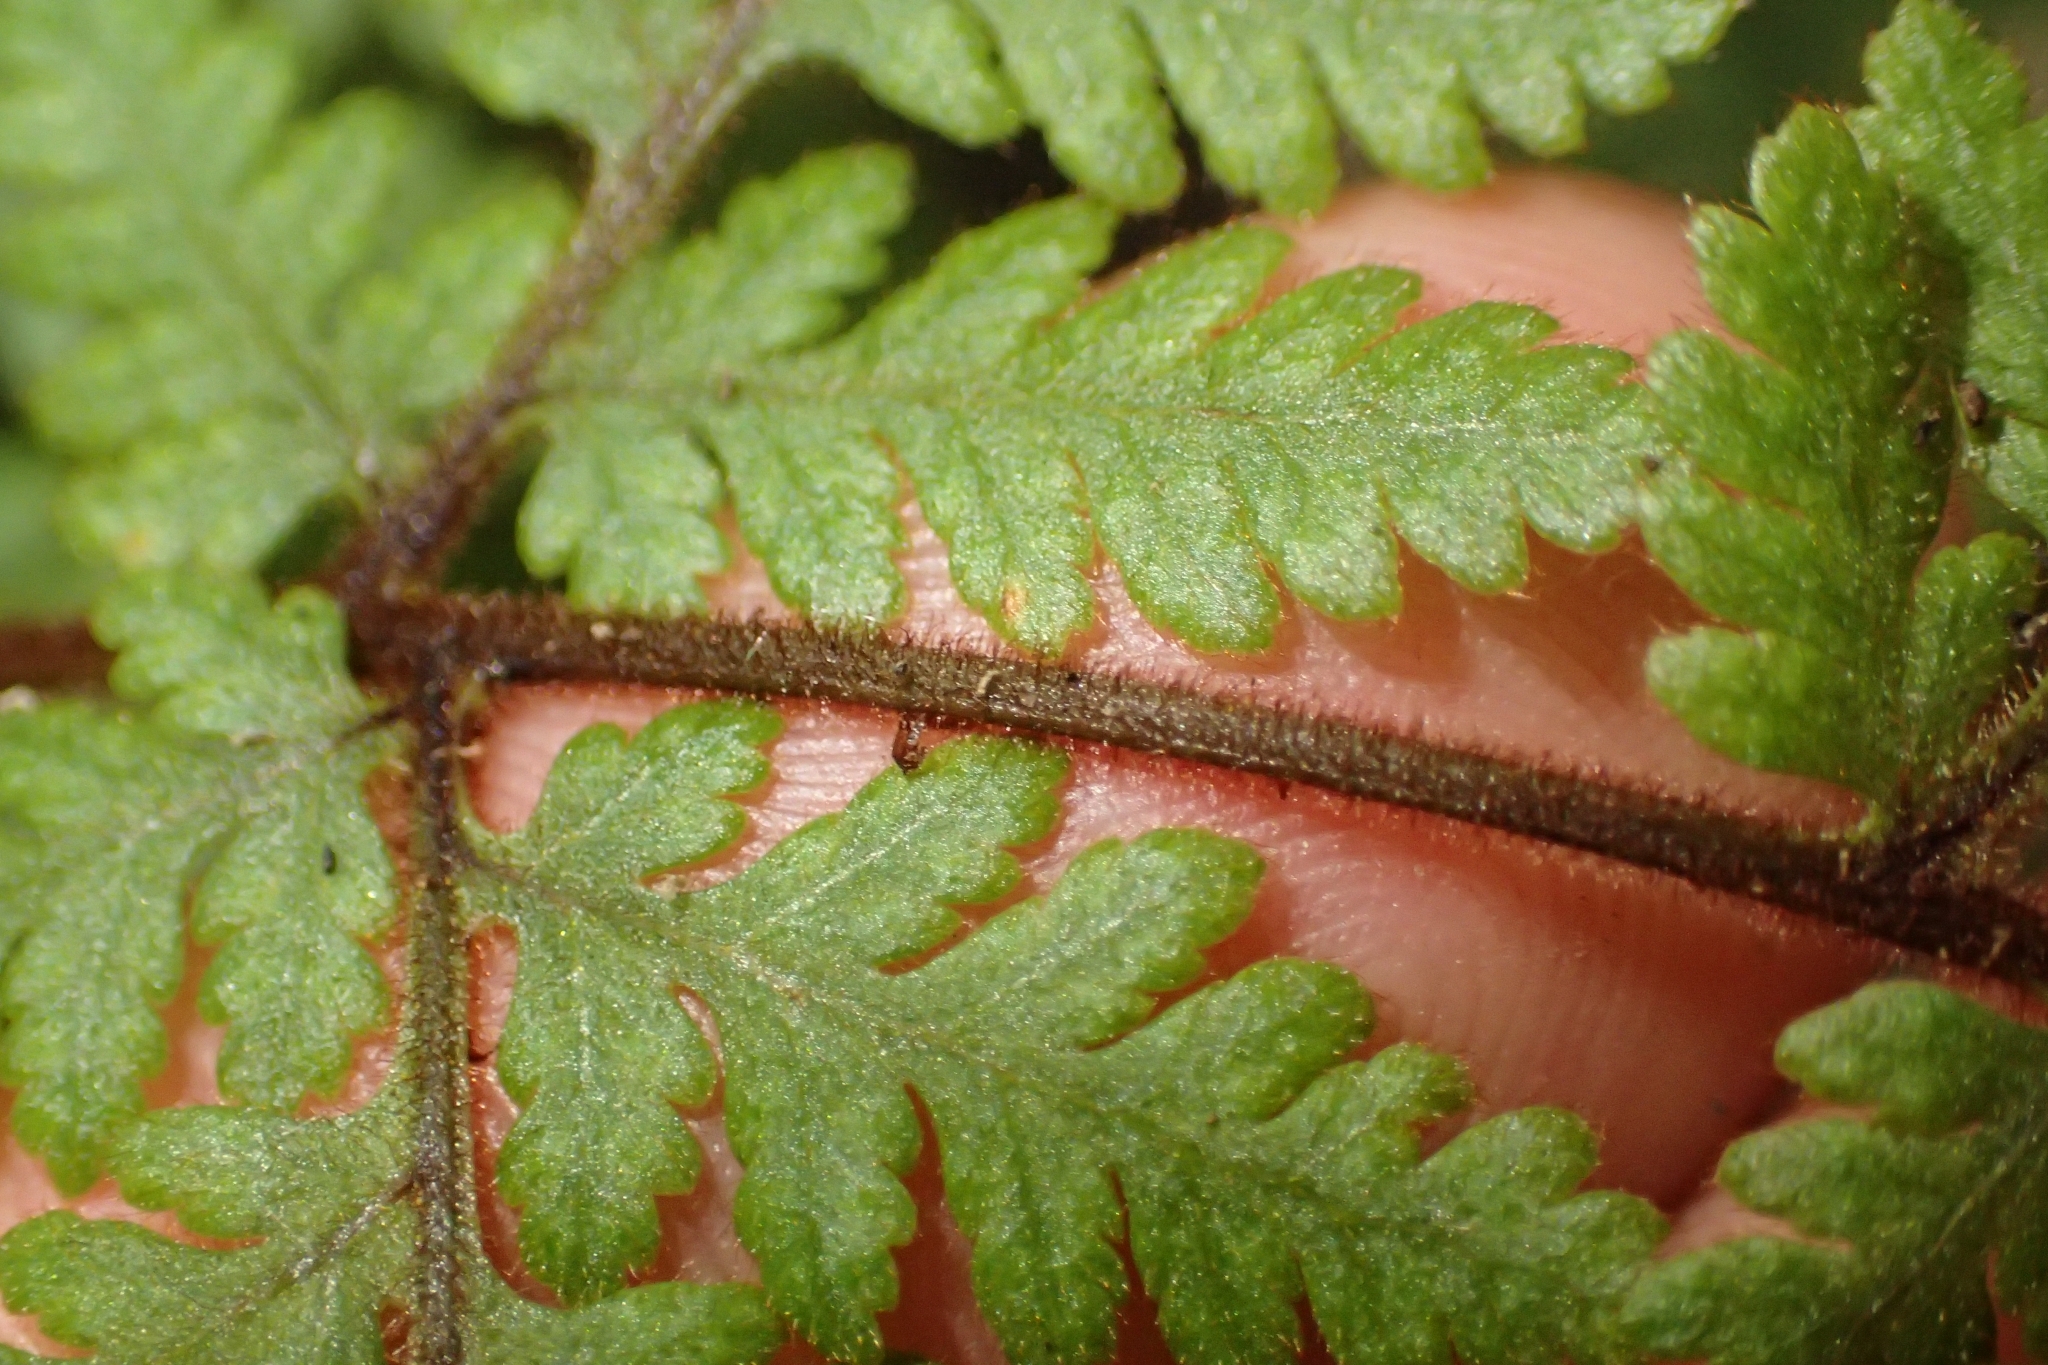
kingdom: Plantae
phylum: Tracheophyta
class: Polypodiopsida
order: Polypodiales
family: Dryopteridaceae
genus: Lastreopsis
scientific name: Lastreopsis velutina
